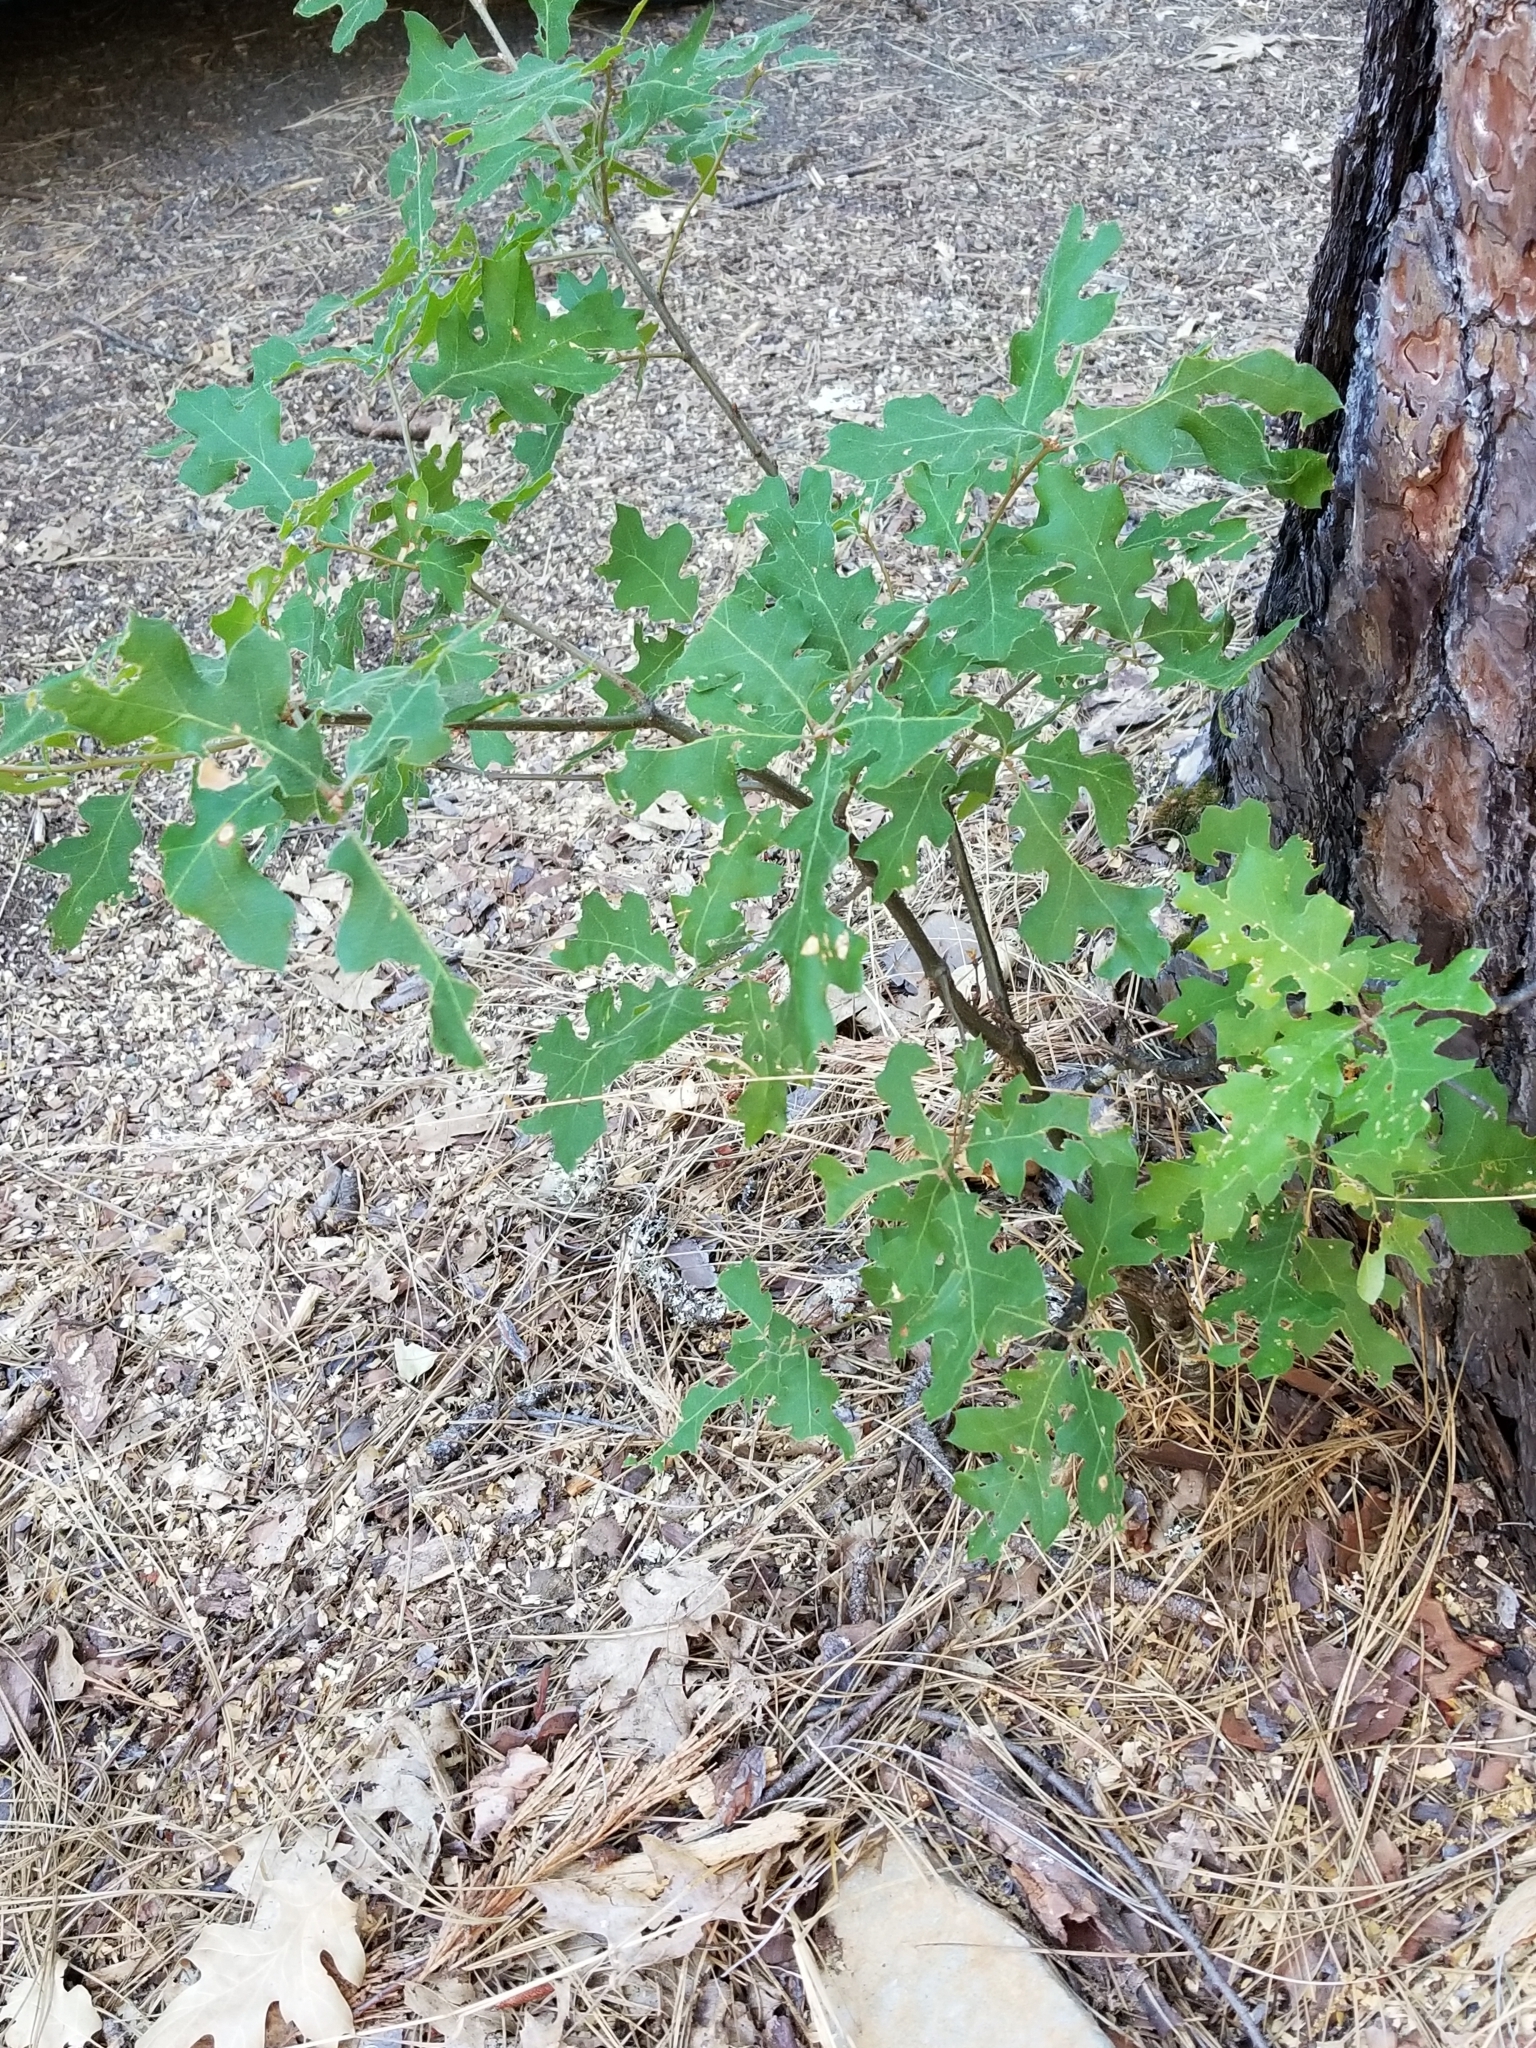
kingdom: Plantae
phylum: Tracheophyta
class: Magnoliopsida
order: Fagales
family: Fagaceae
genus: Quercus
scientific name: Quercus kelloggii
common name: California black oak
